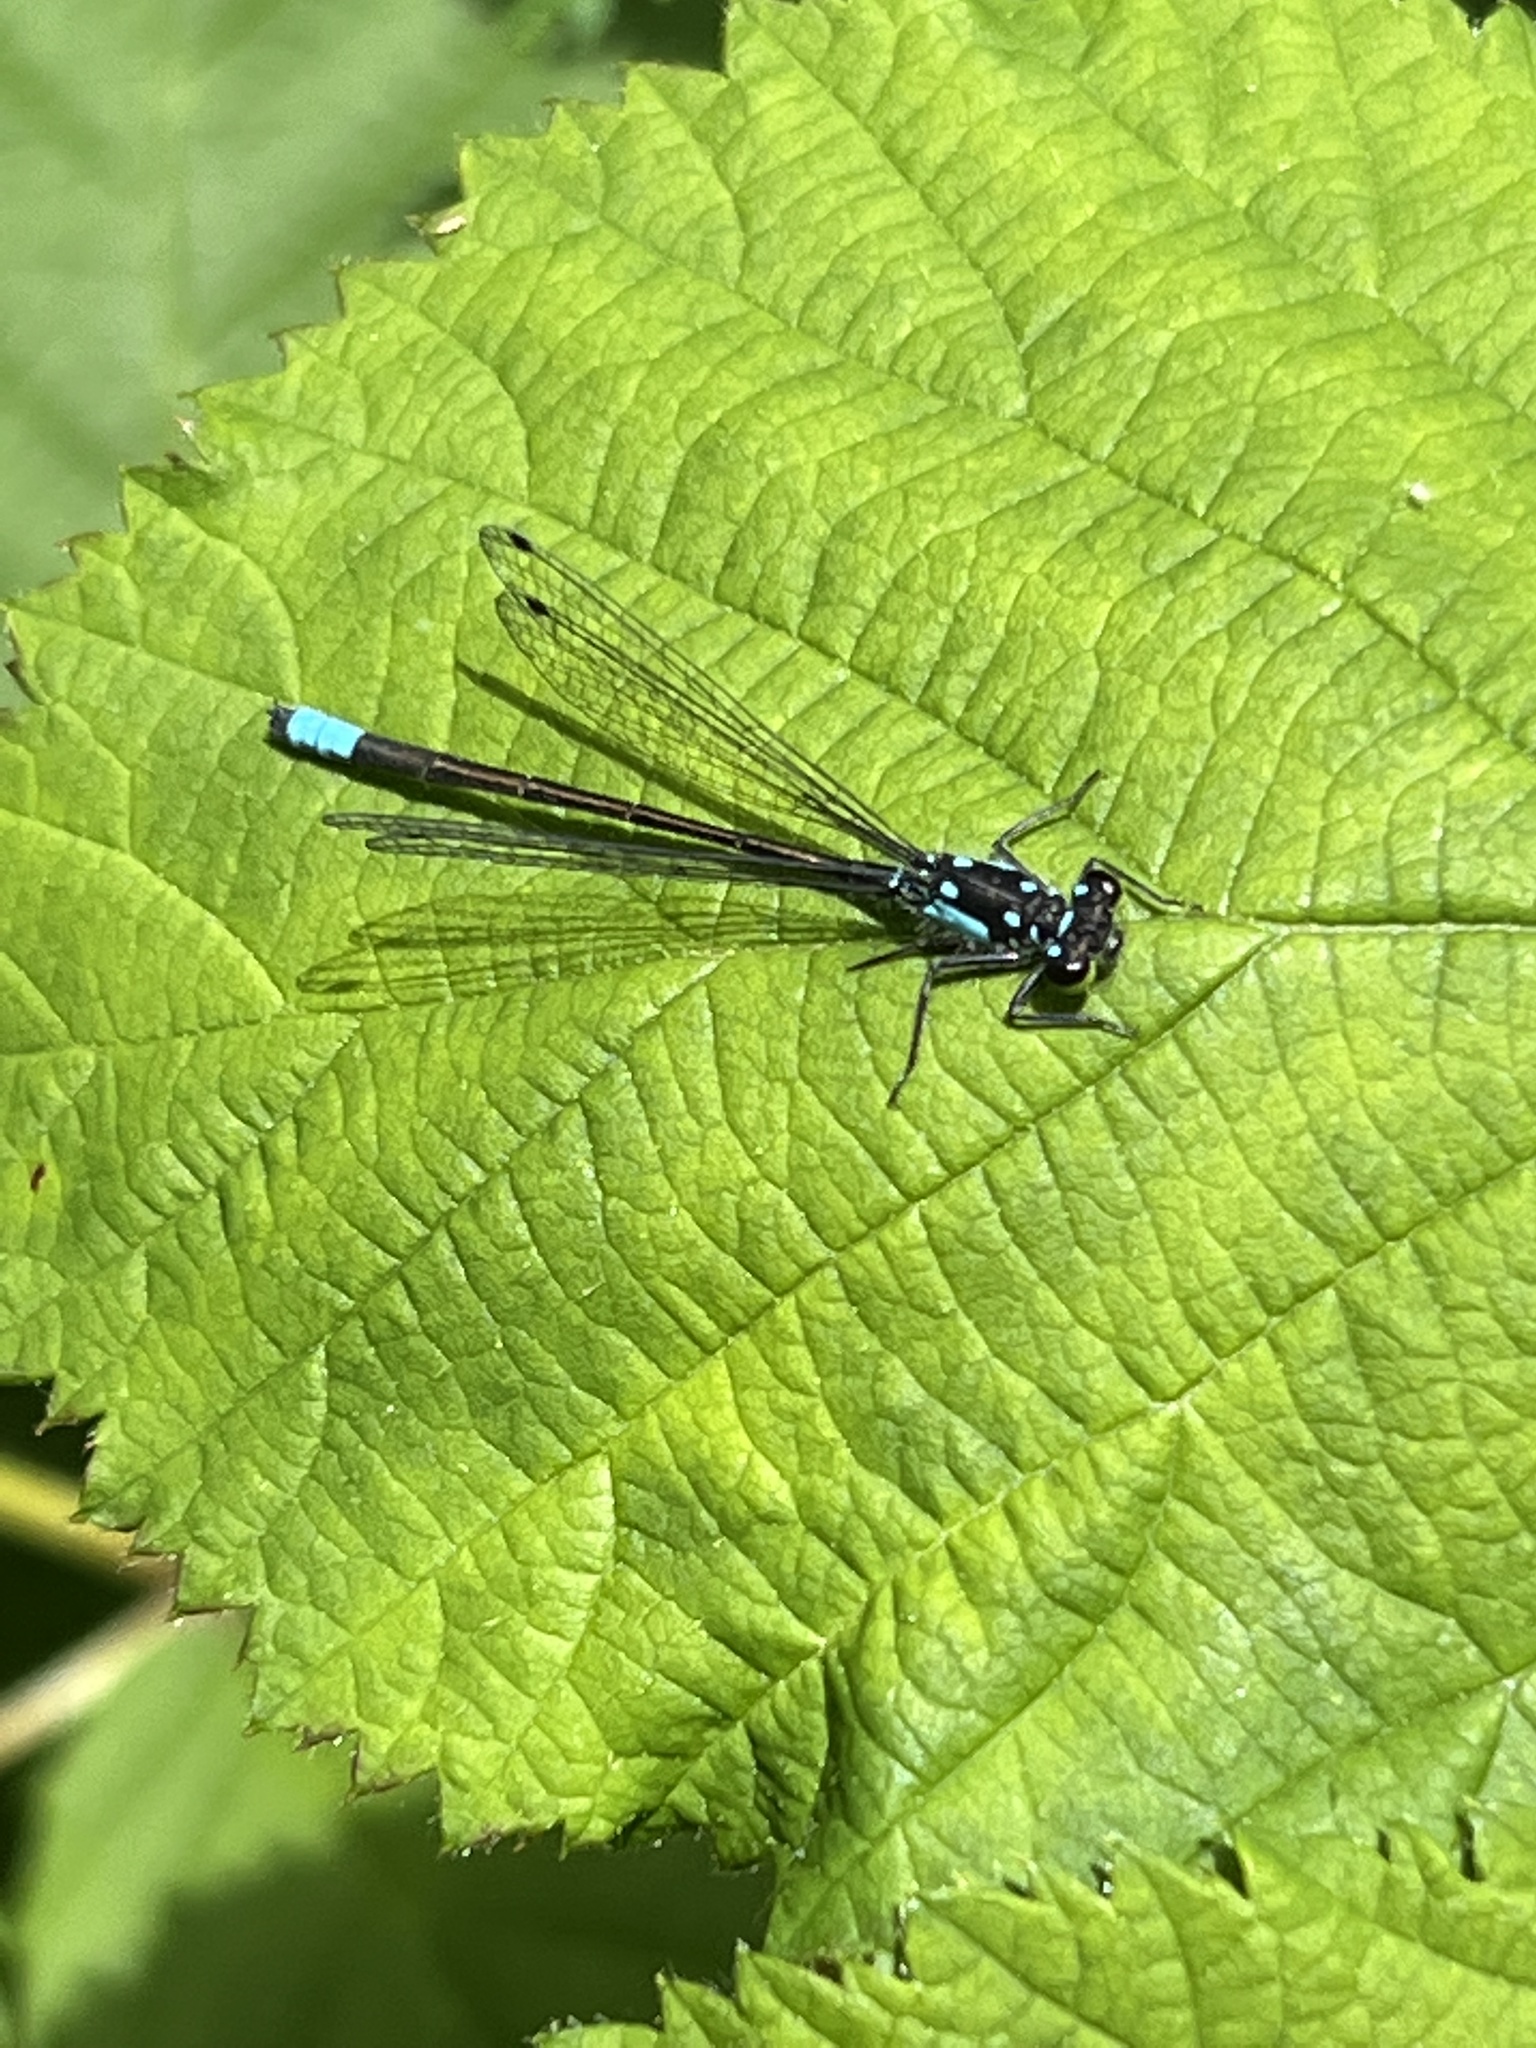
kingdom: Animalia
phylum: Arthropoda
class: Insecta
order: Odonata
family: Coenagrionidae
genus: Ischnura
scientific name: Ischnura cervula
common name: Pacific forktail
